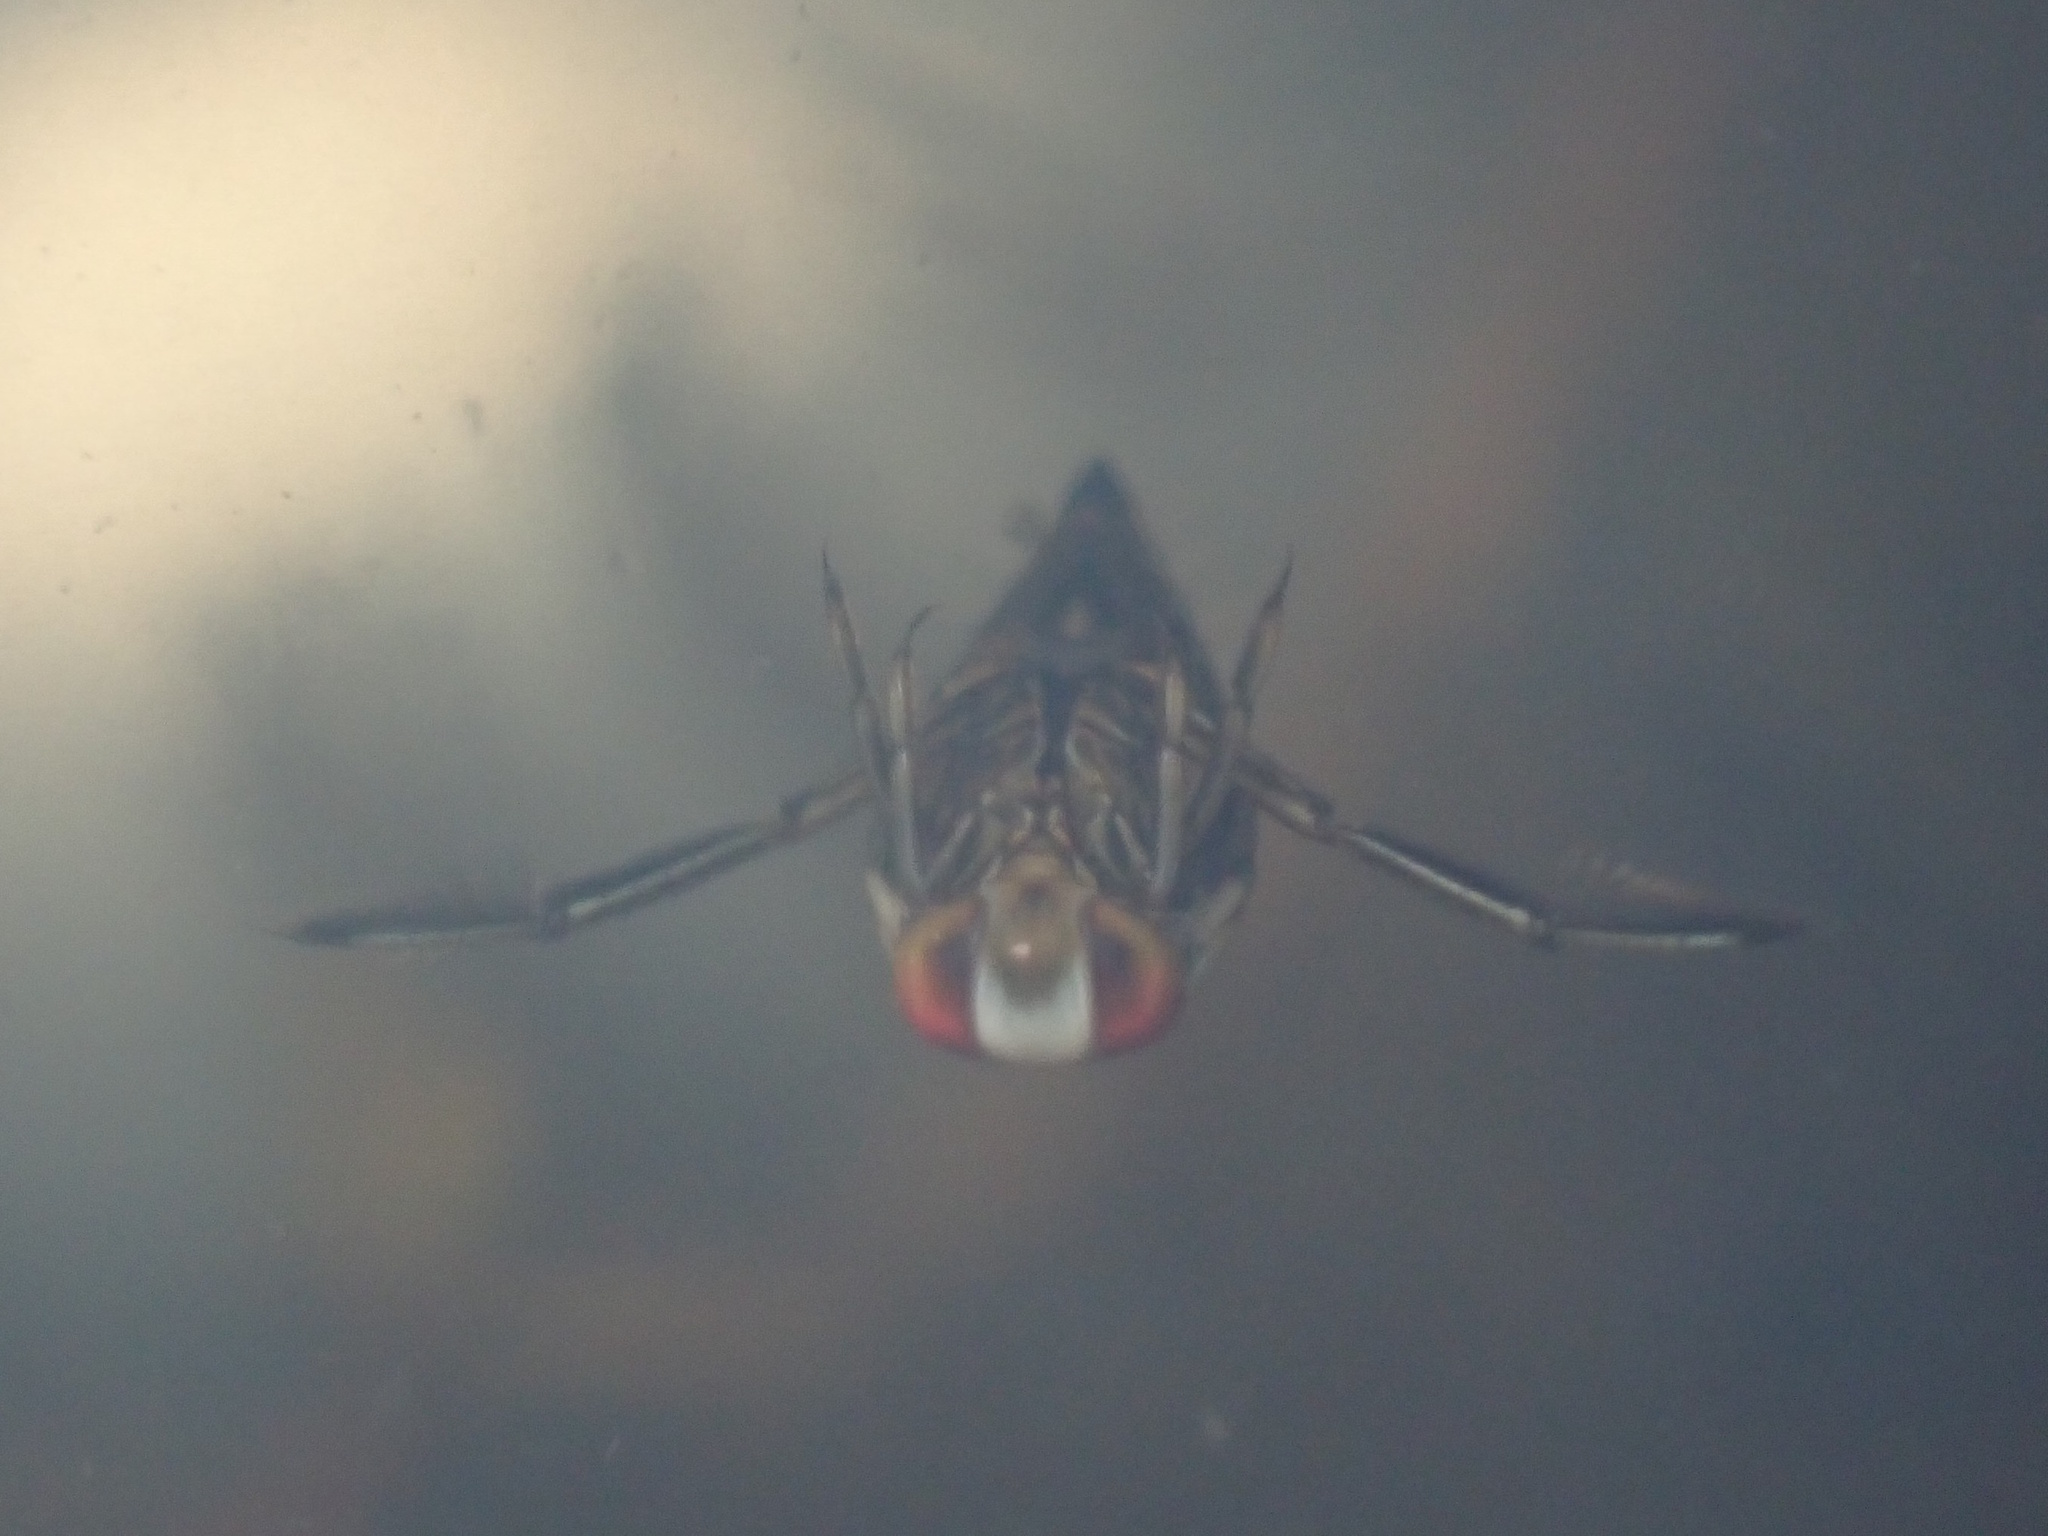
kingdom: Animalia
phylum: Arthropoda
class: Insecta
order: Hemiptera
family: Notonectidae
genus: Enithares
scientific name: Enithares
